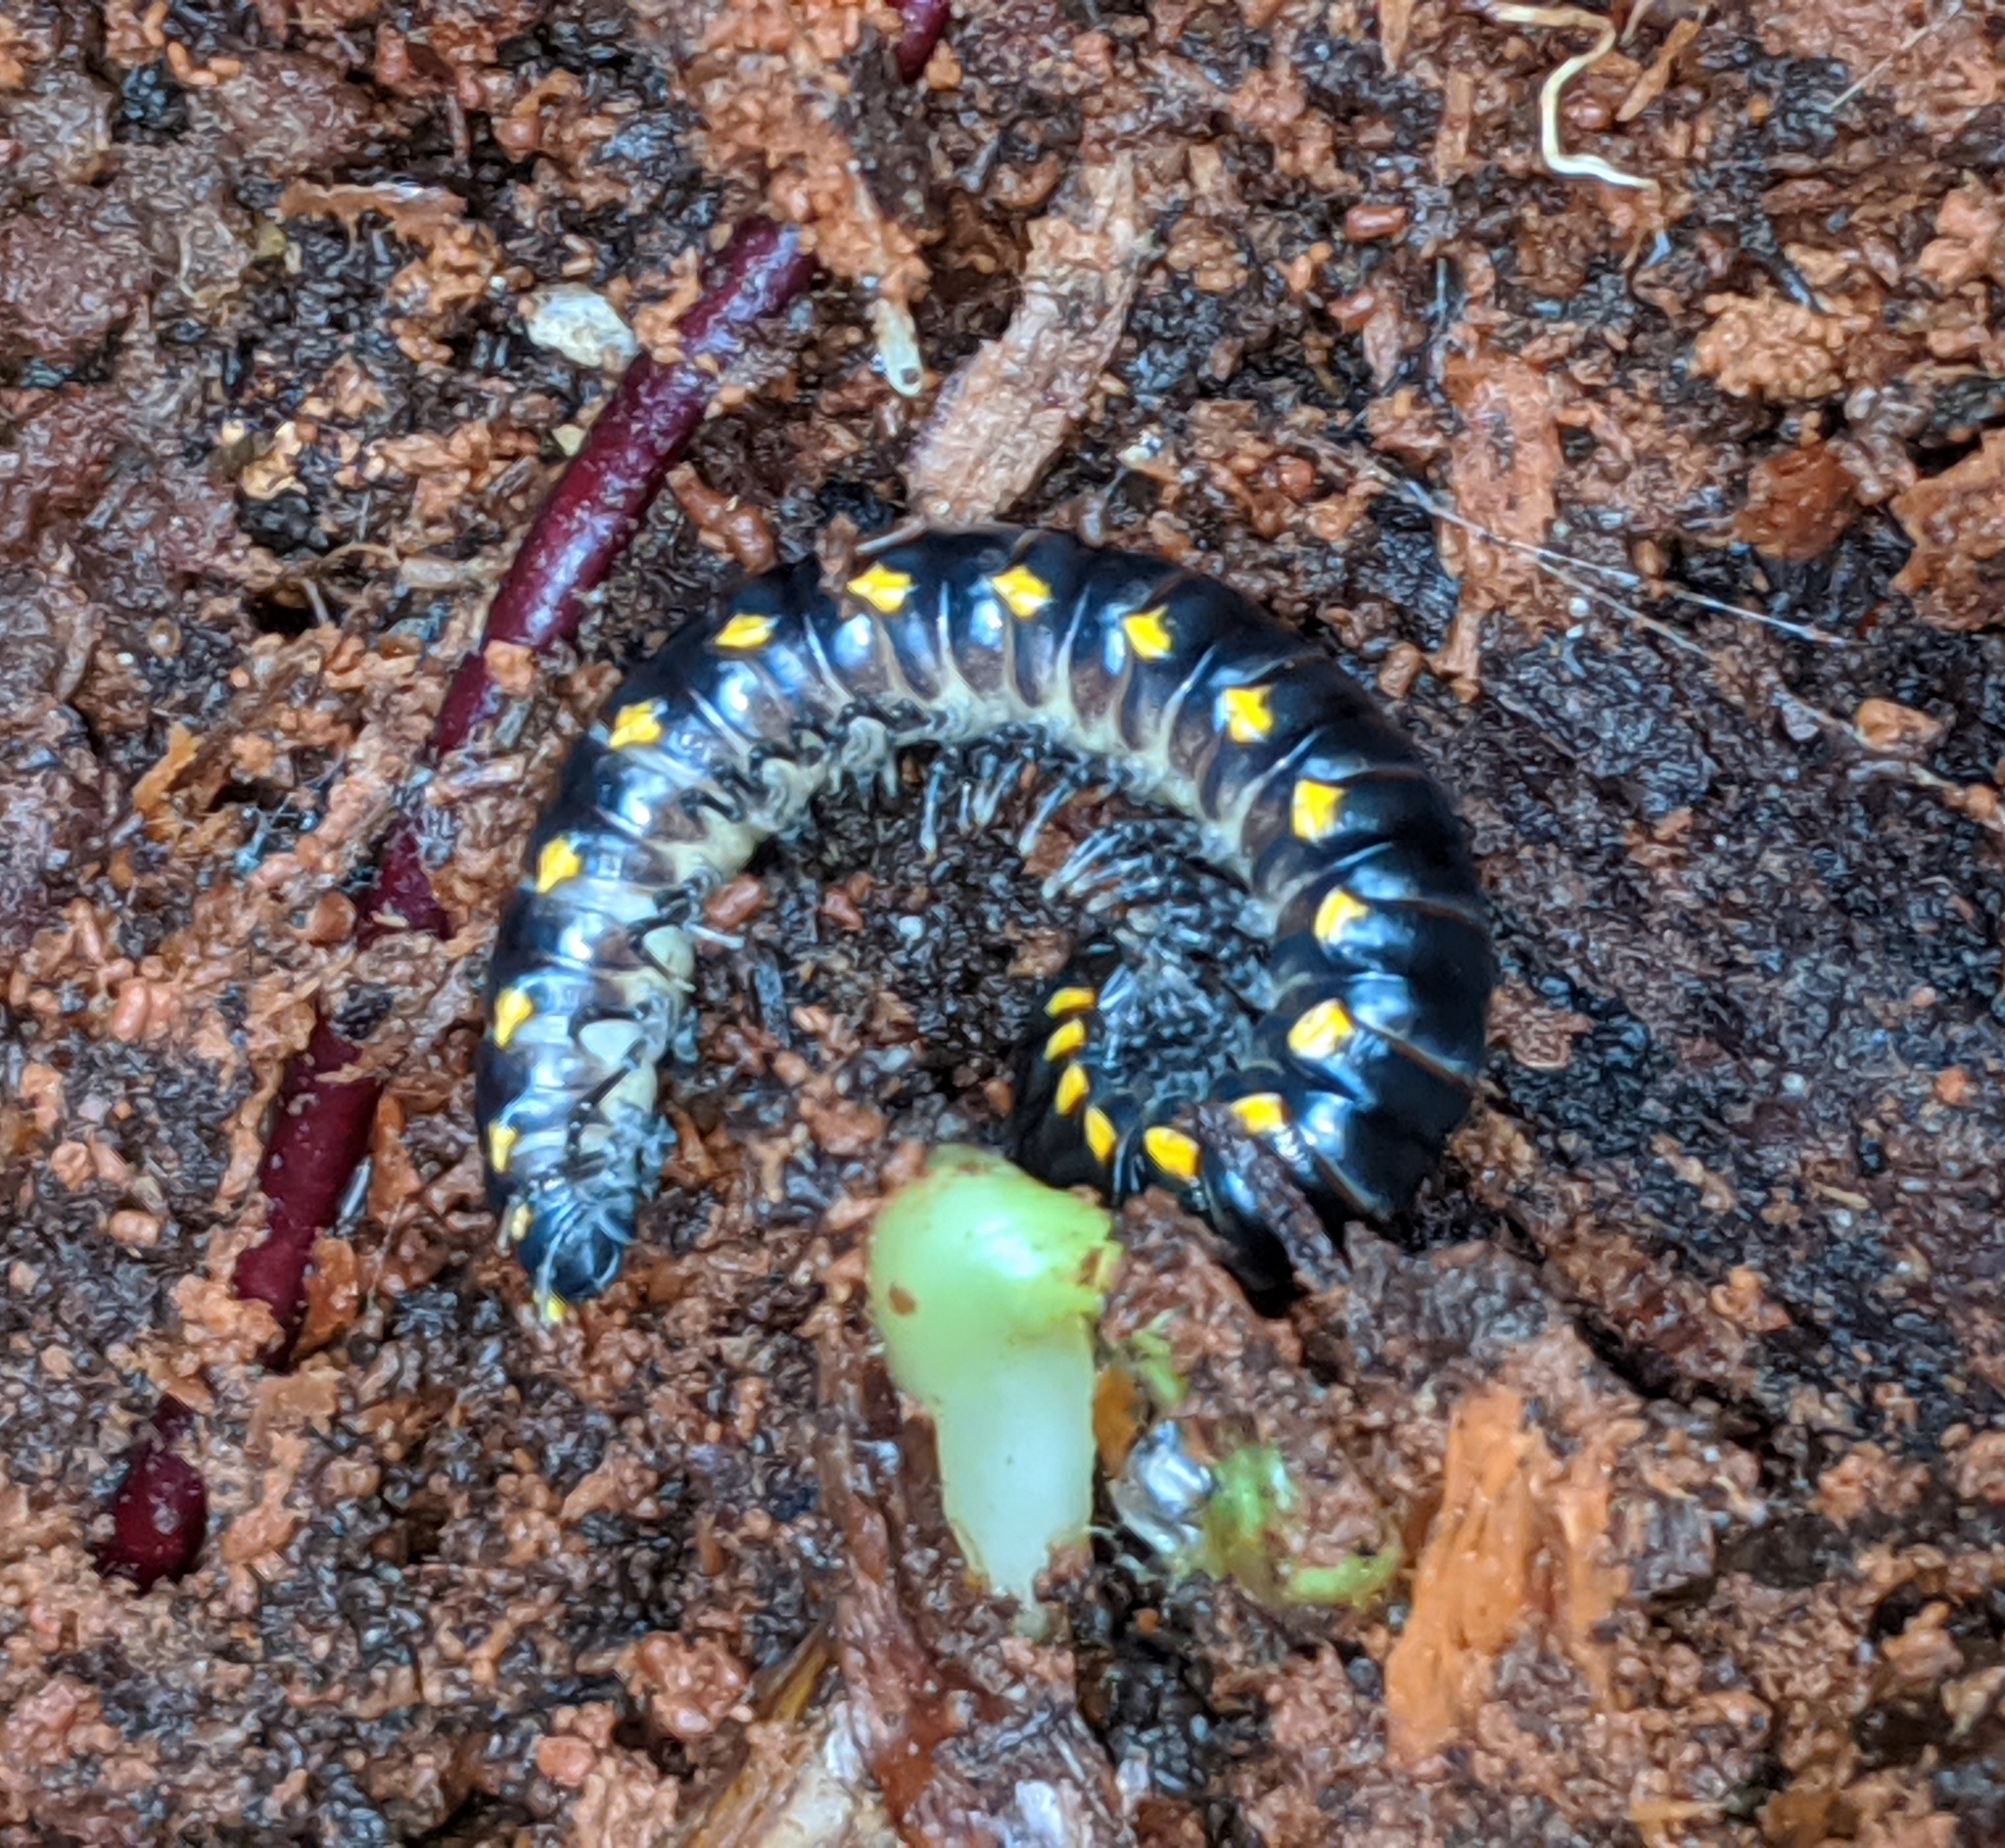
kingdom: Animalia
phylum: Arthropoda
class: Diplopoda
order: Polydesmida
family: Xystodesmidae
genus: Harpaphe
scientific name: Harpaphe haydeniana
